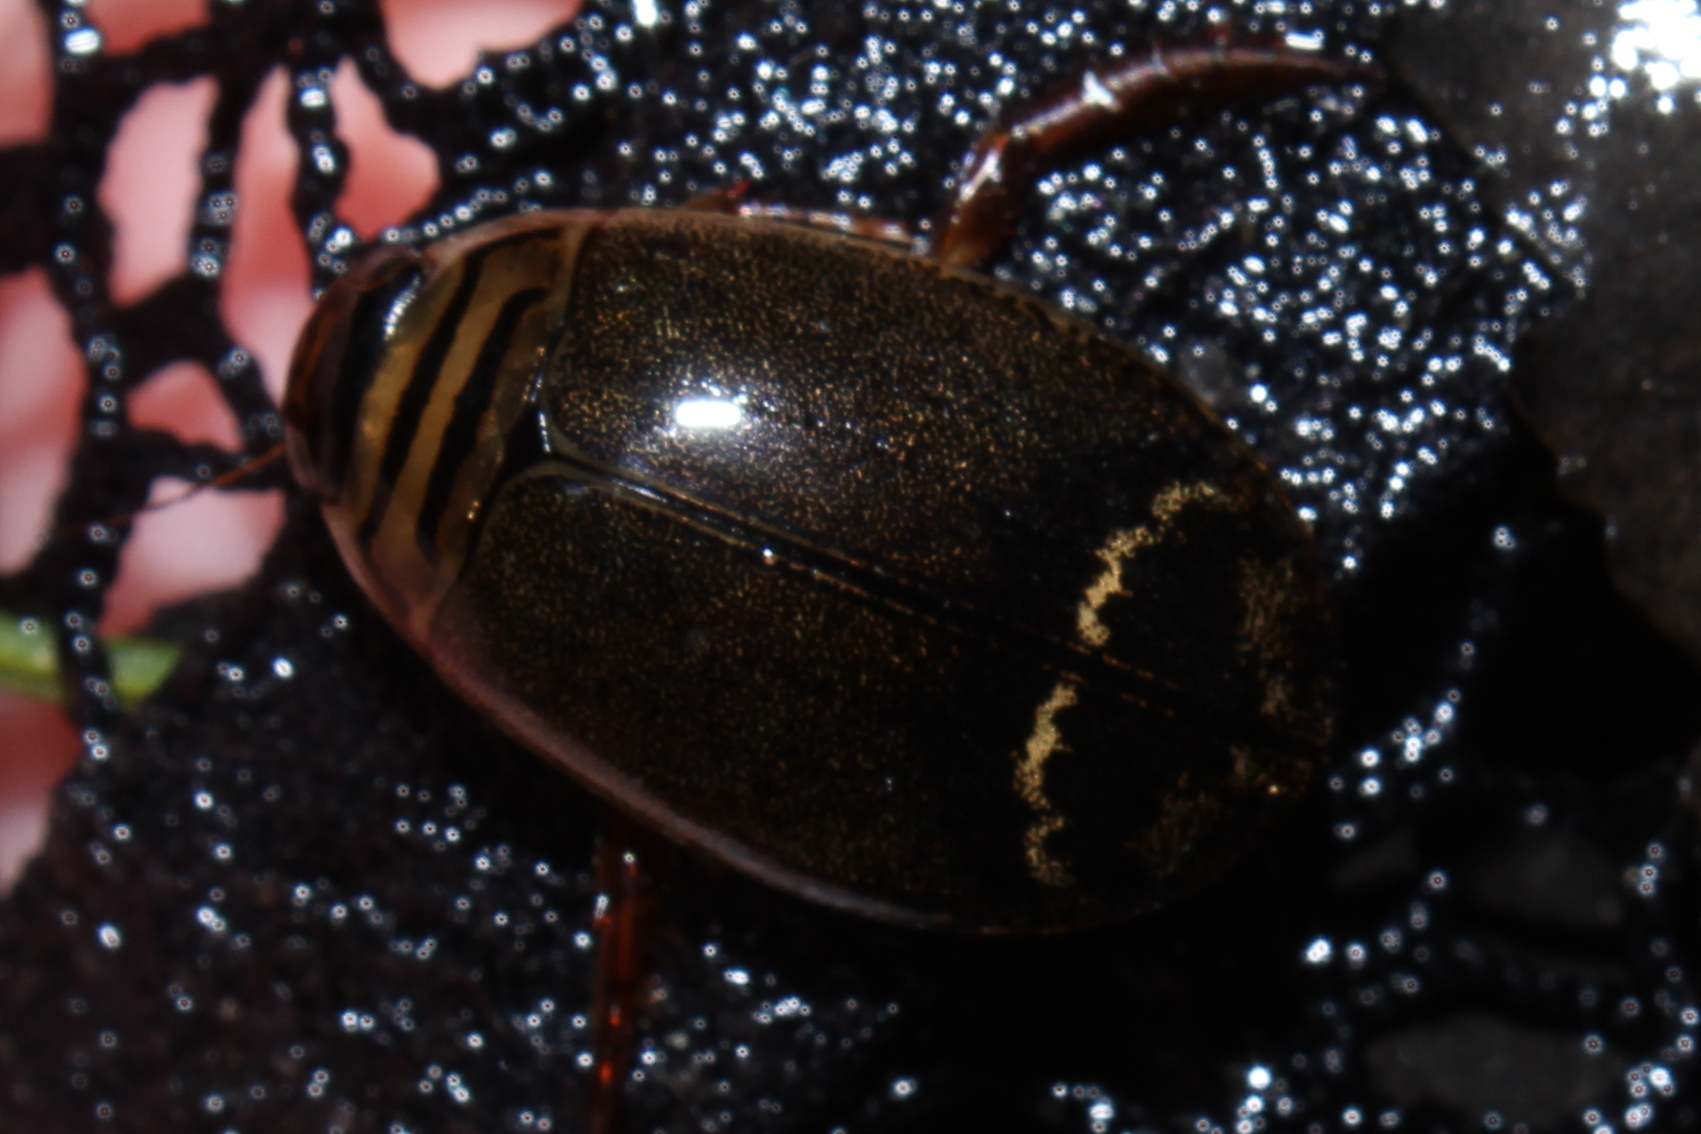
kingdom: Animalia
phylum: Arthropoda
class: Insecta
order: Coleoptera
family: Dytiscidae
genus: Acilius
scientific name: Acilius
